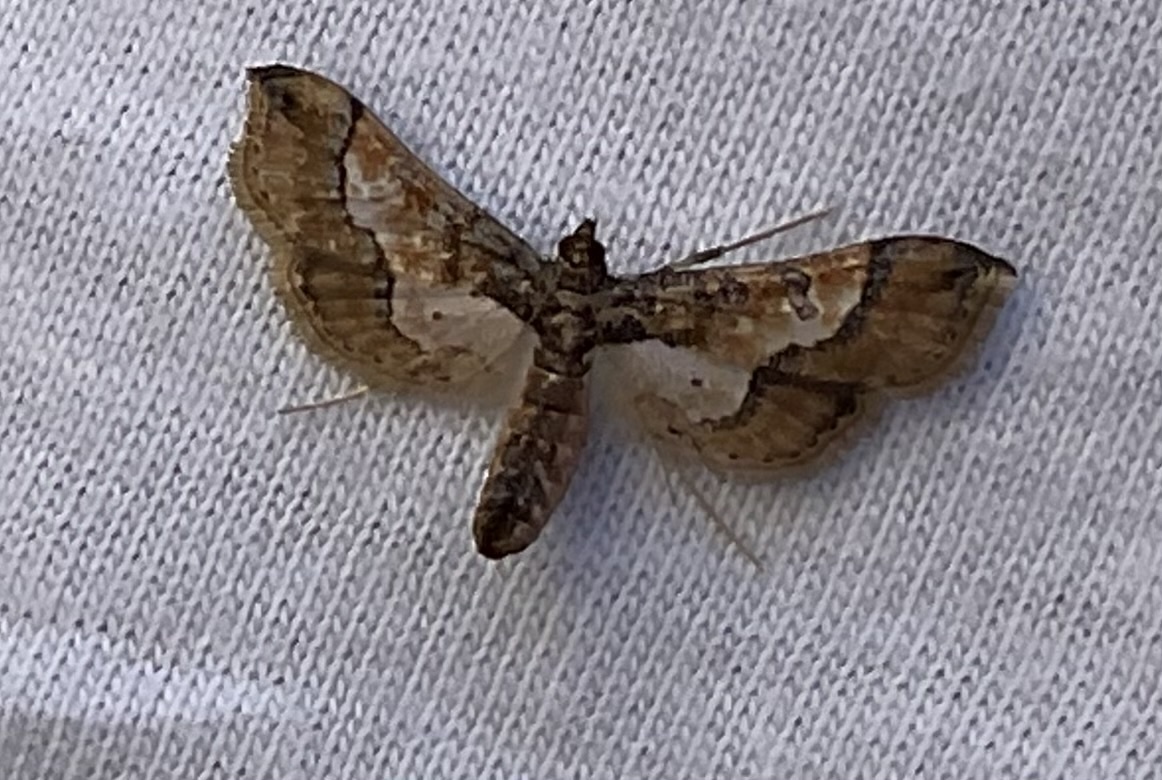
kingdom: Animalia
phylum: Arthropoda
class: Insecta
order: Lepidoptera
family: Crambidae
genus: Hydriris
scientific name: Hydriris ornatalis
